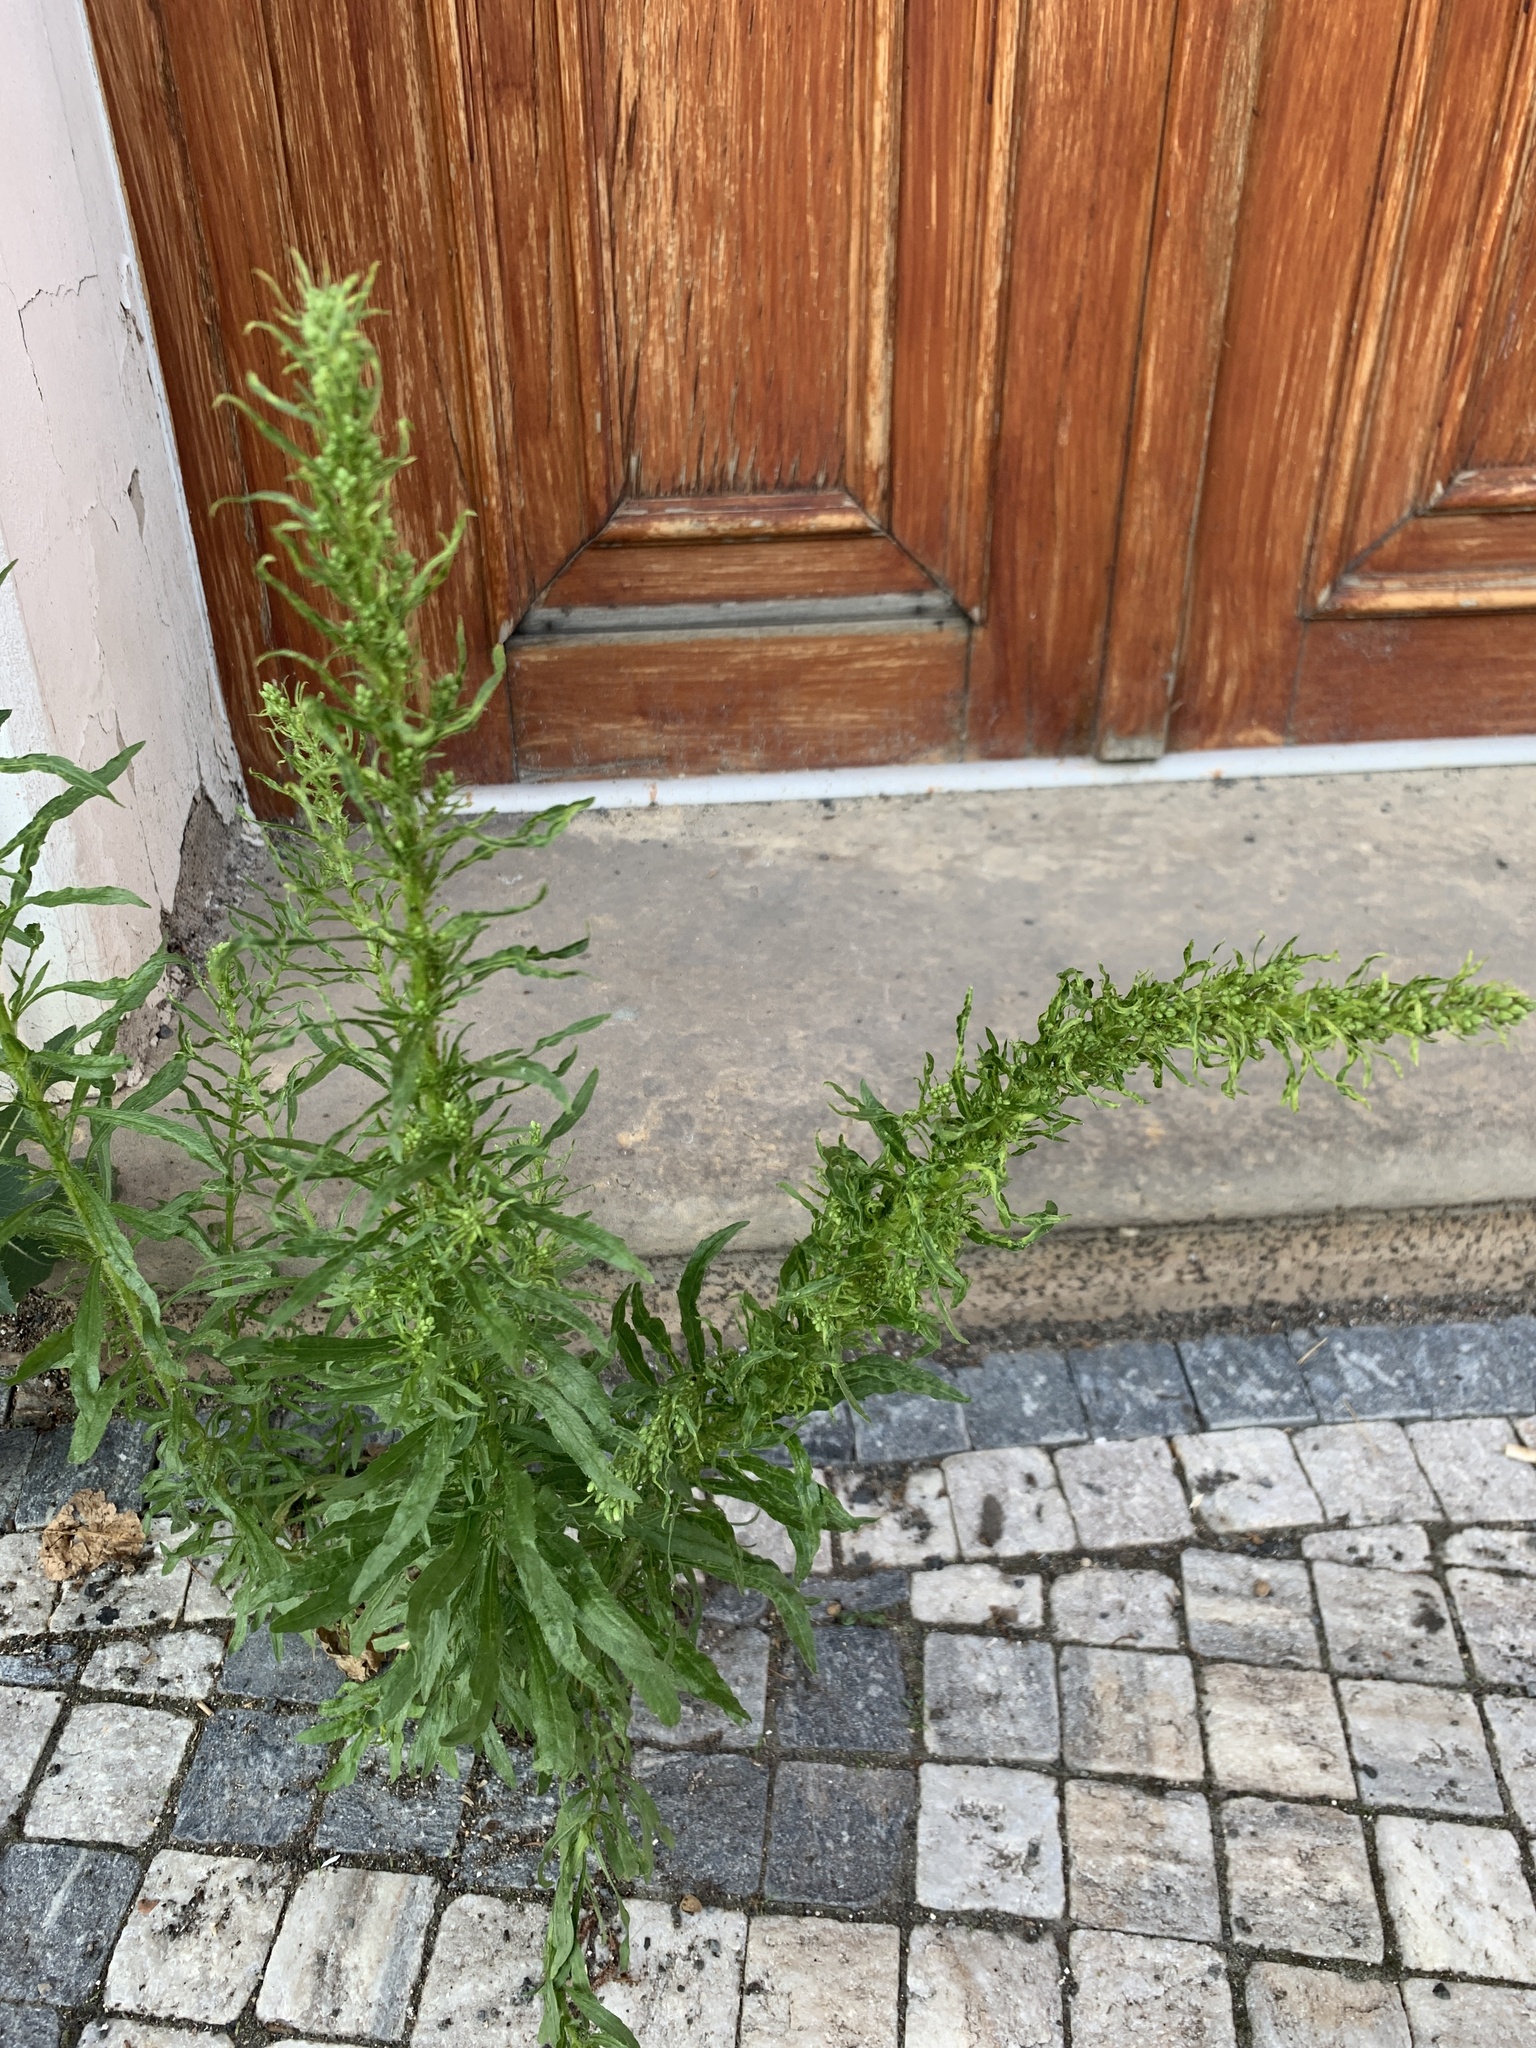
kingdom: Plantae
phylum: Tracheophyta
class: Magnoliopsida
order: Asterales
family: Asteraceae
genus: Erigeron
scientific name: Erigeron canadensis
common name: Canadian fleabane
